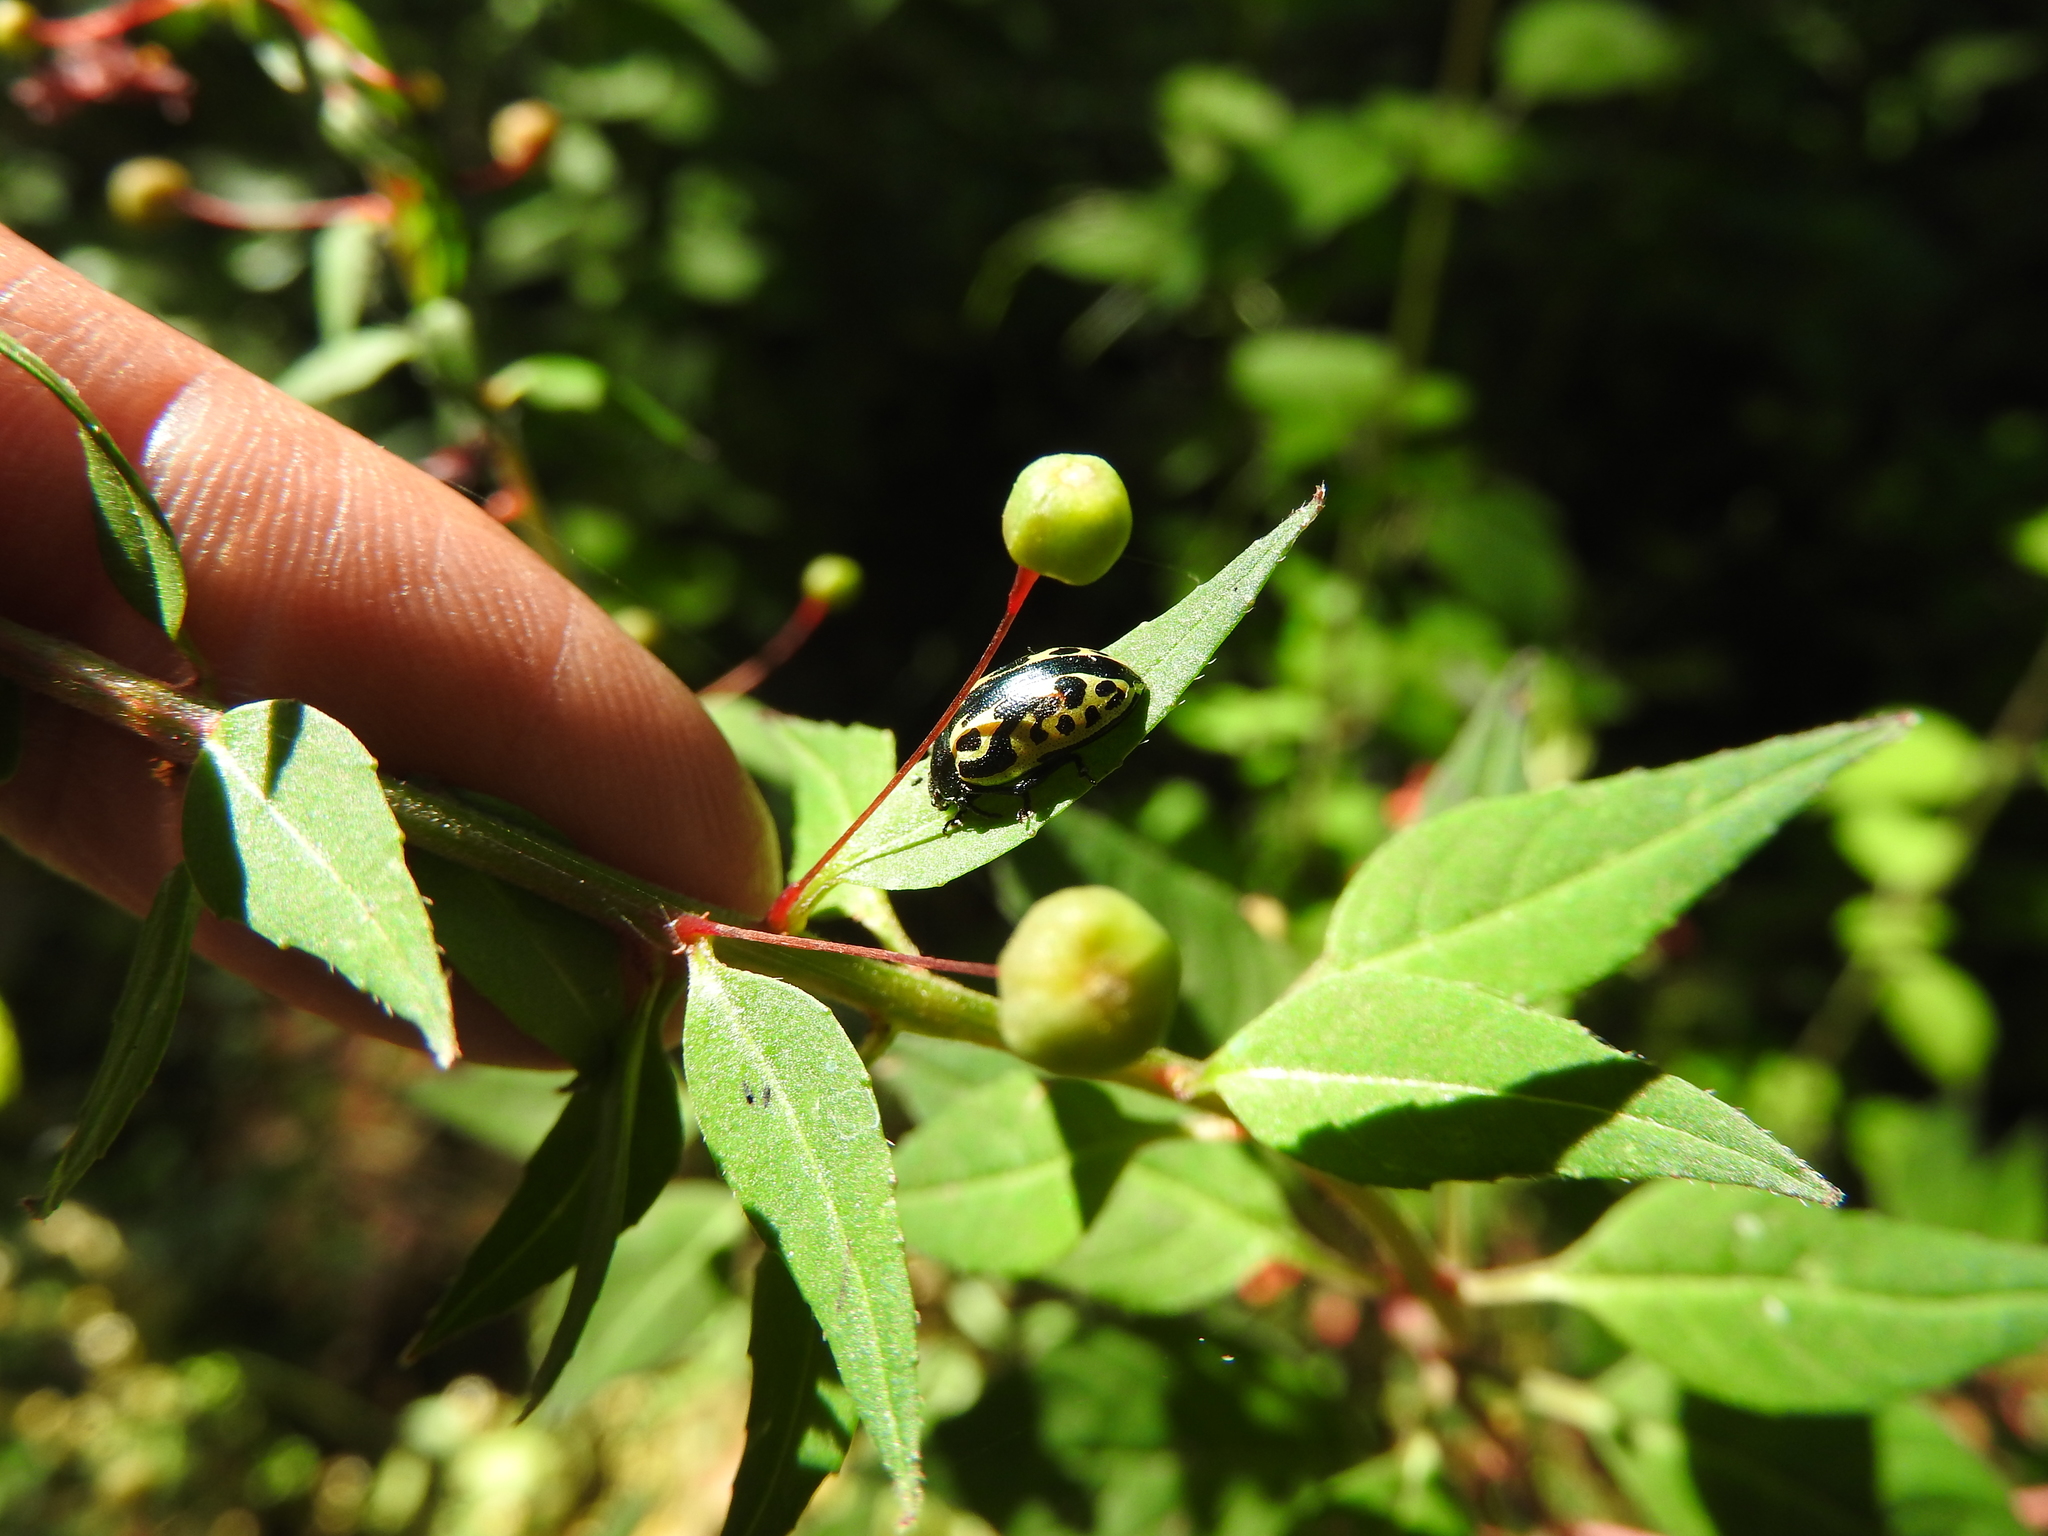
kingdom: Animalia
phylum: Arthropoda
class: Insecta
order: Coleoptera
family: Chrysomelidae
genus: Calligrapha
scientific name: Calligrapha
